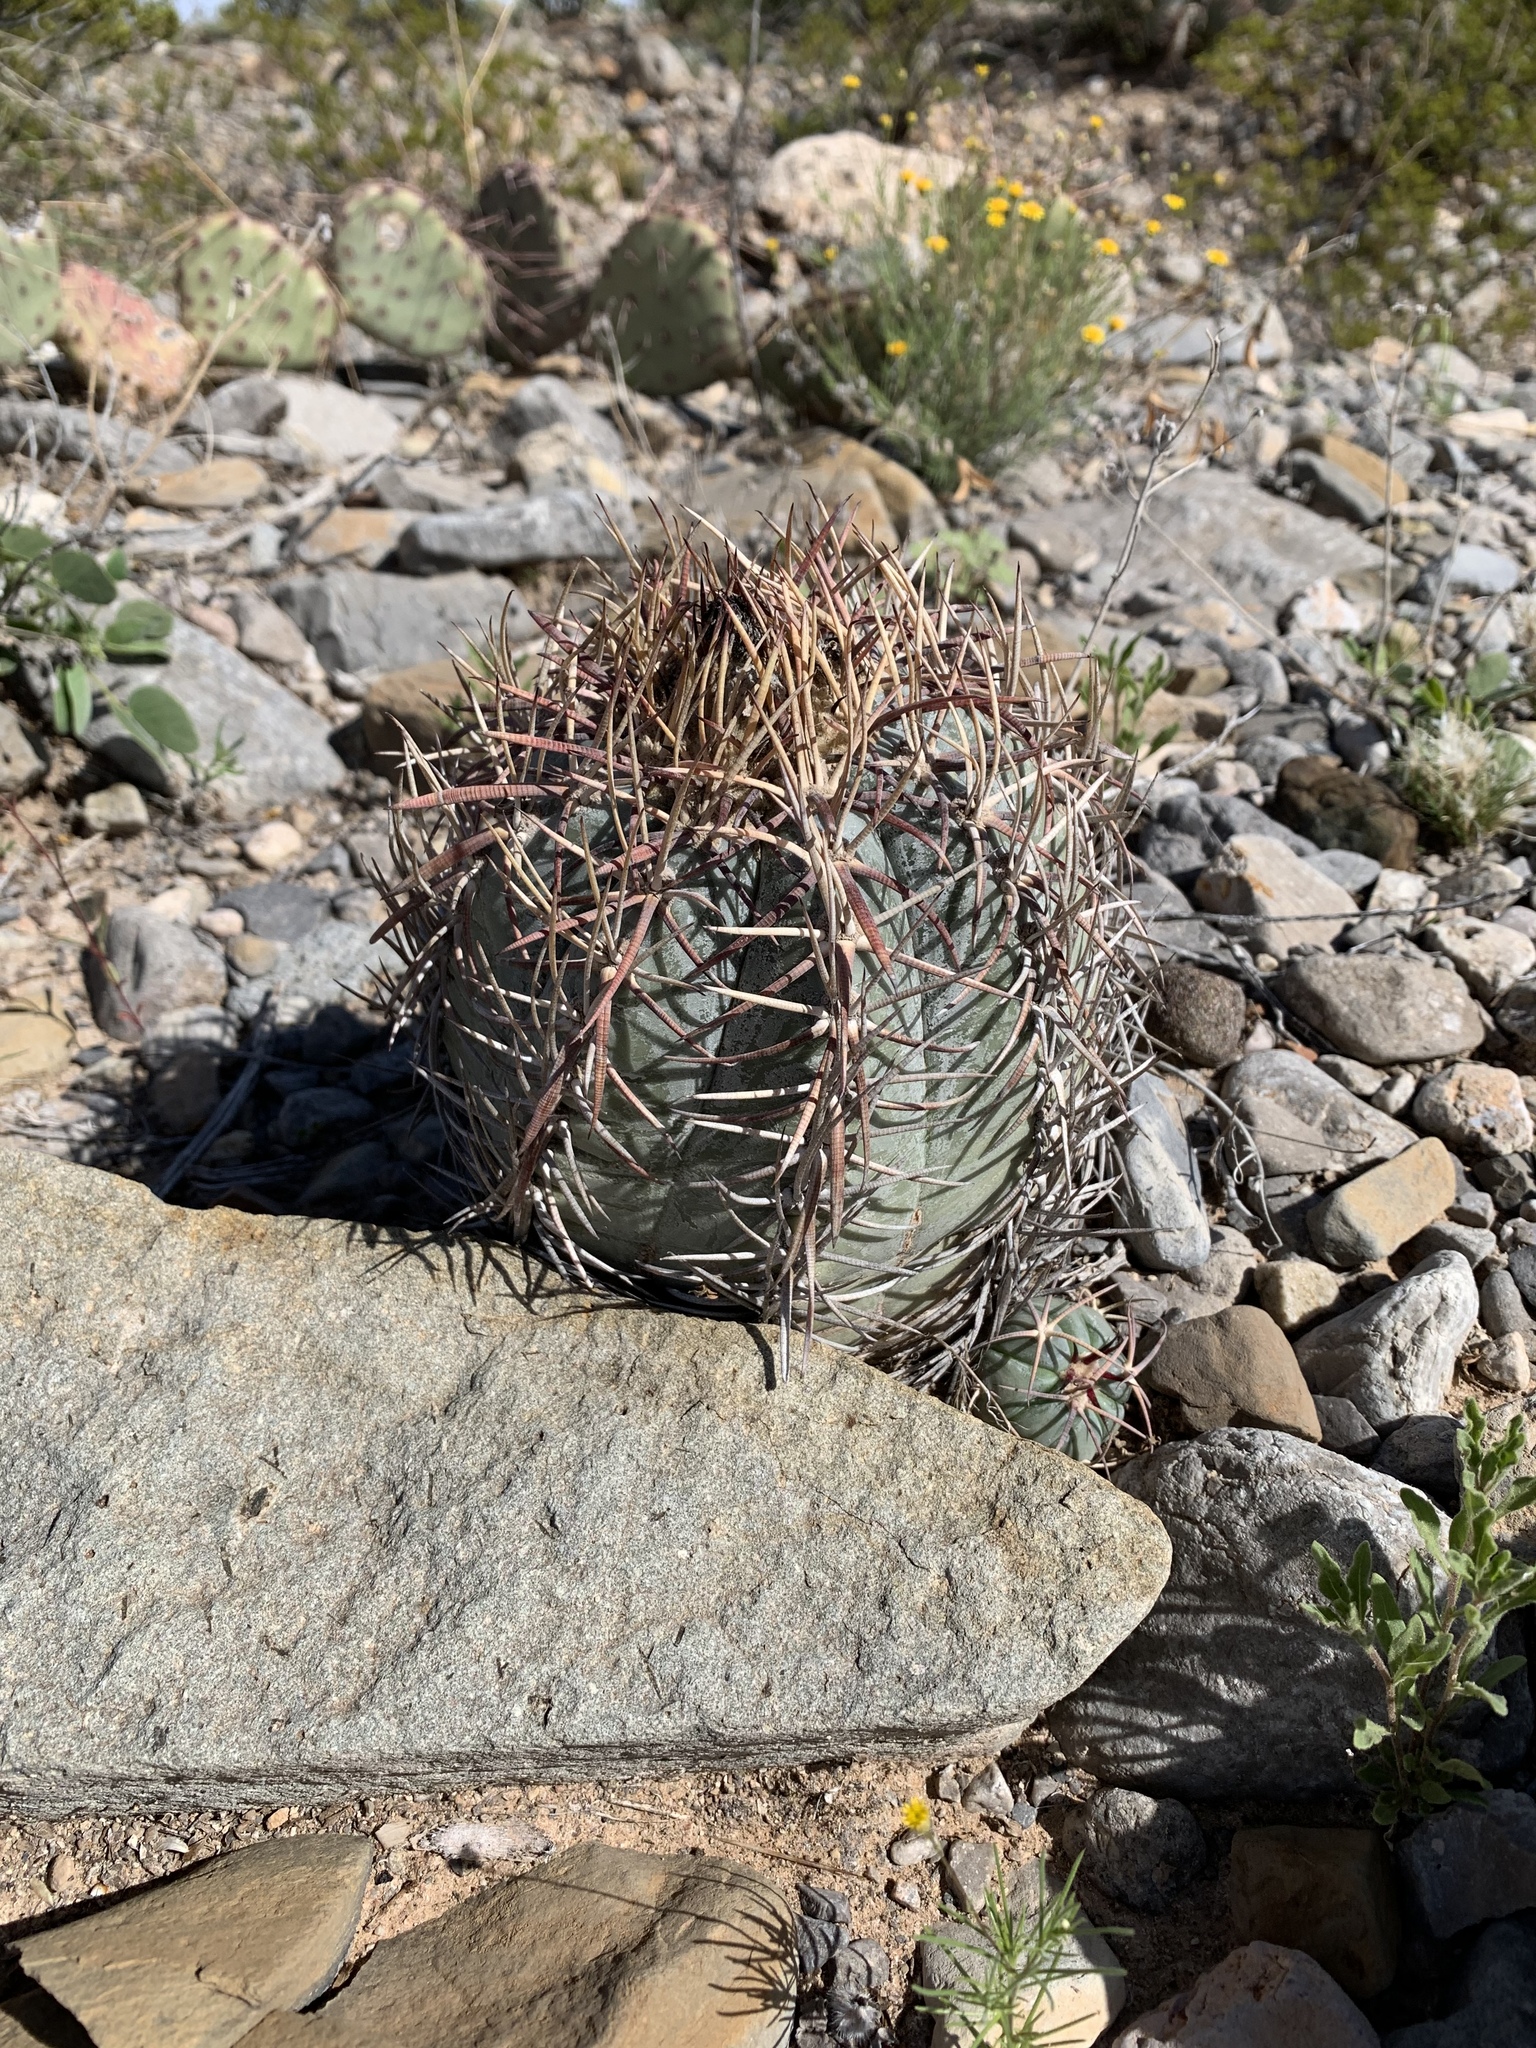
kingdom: Plantae
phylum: Tracheophyta
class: Magnoliopsida
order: Caryophyllales
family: Cactaceae
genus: Echinocactus
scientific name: Echinocactus horizonthalonius
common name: Devilshead
